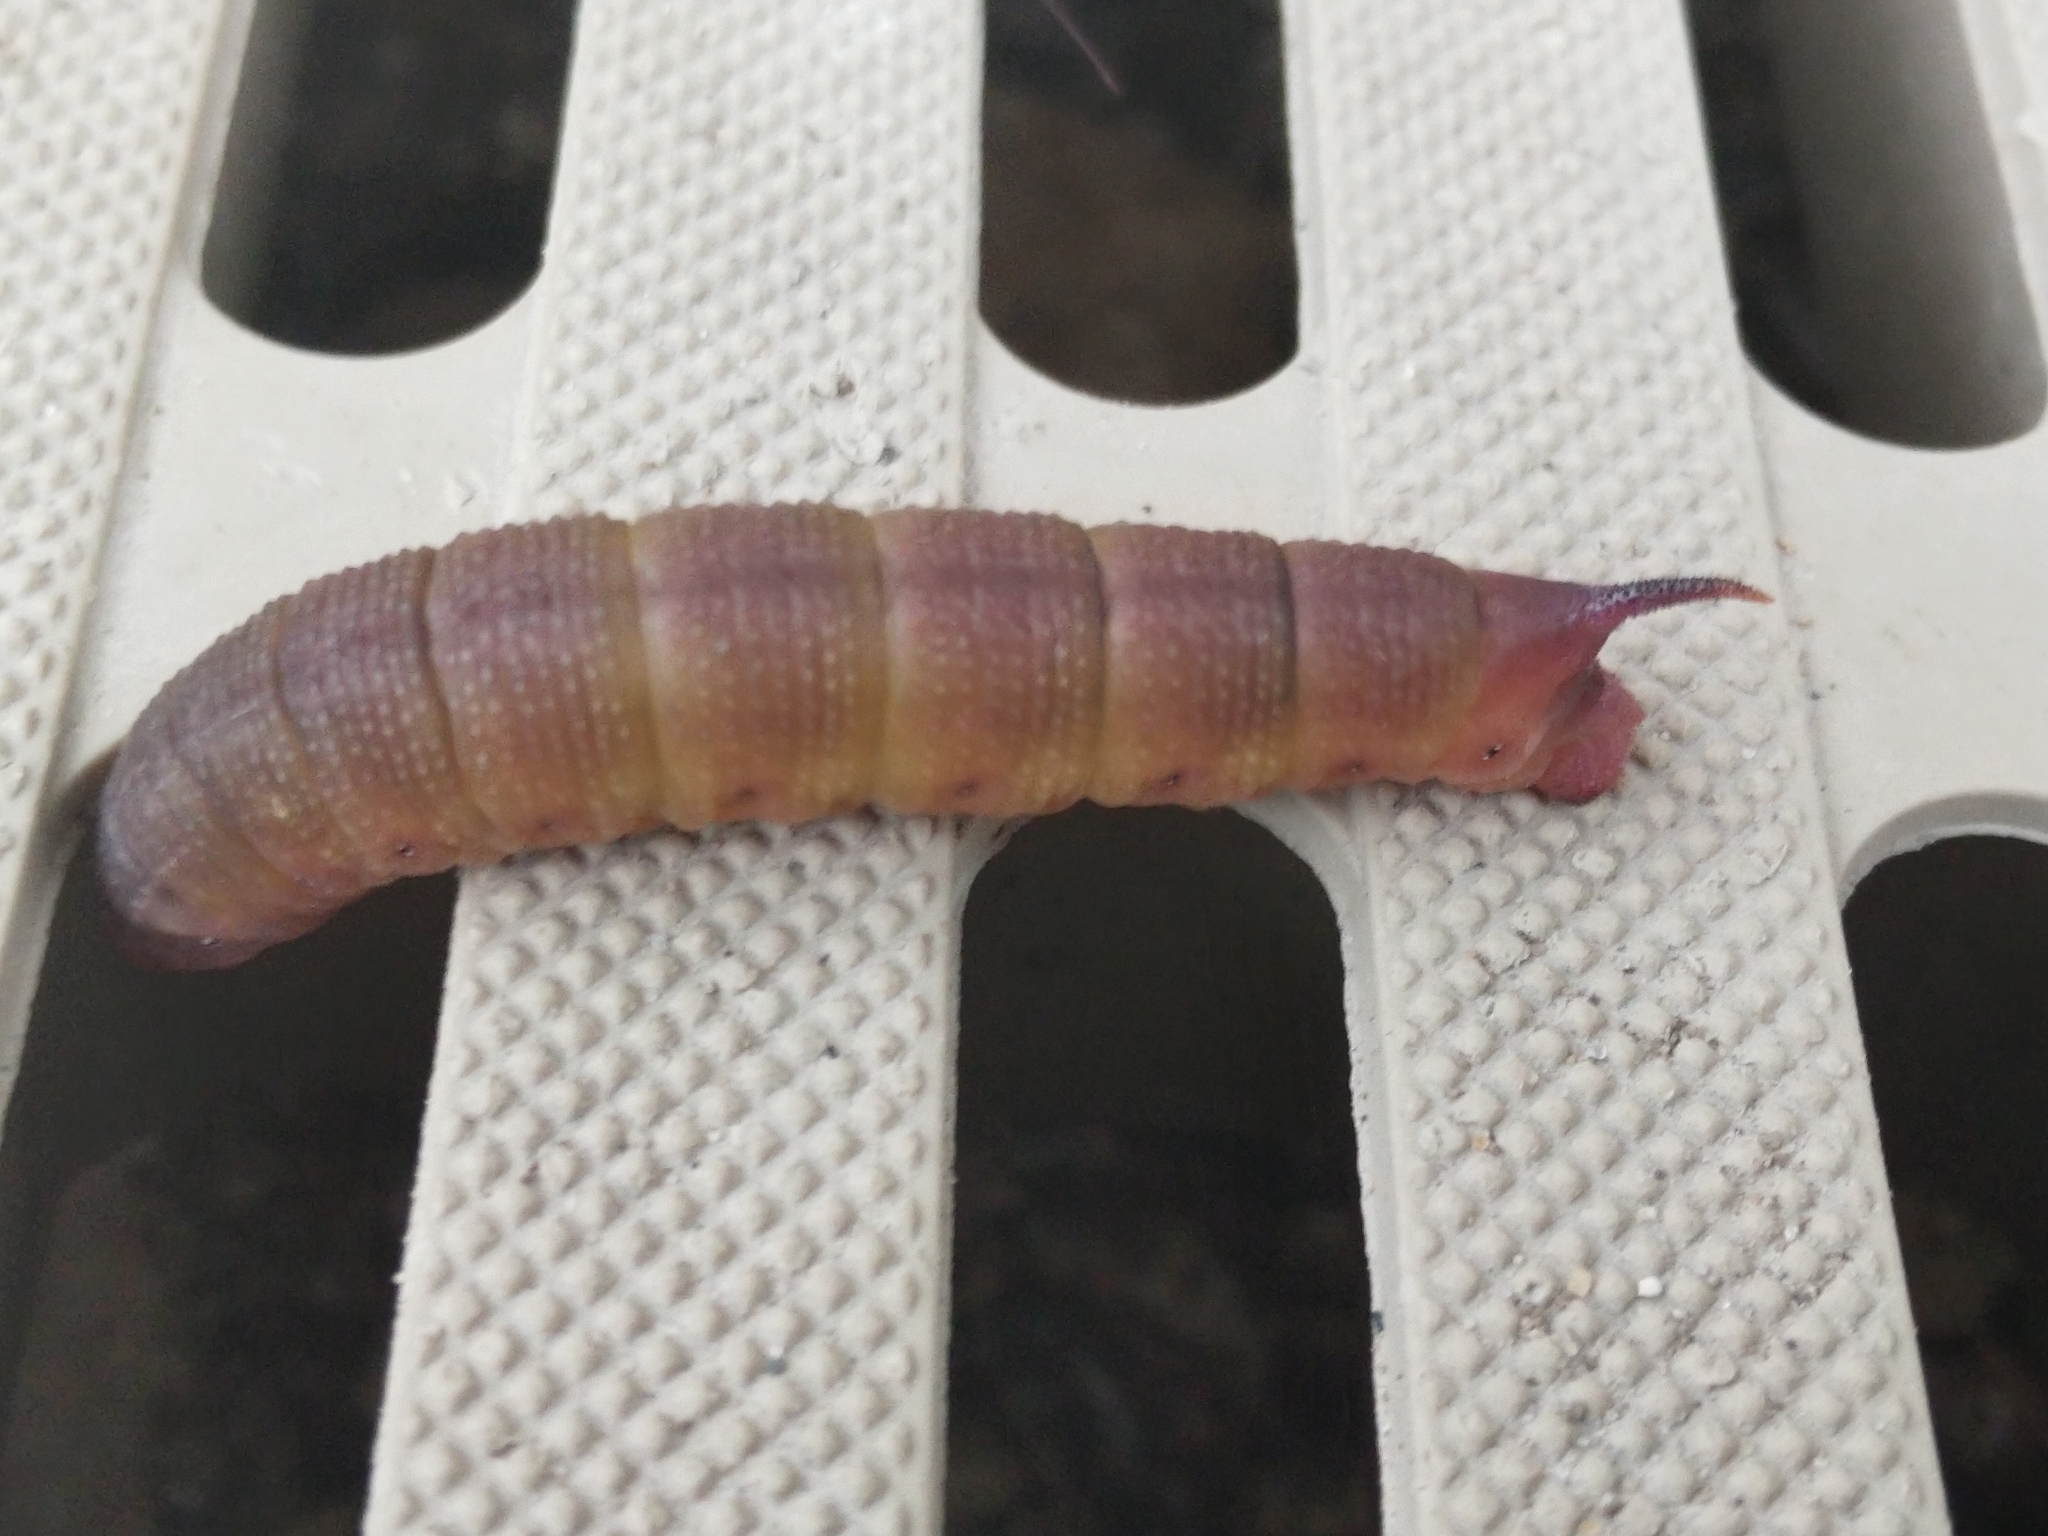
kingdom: Animalia
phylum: Arthropoda
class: Insecta
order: Lepidoptera
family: Sphingidae
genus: Hemaris
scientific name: Hemaris thysbe
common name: Common clear-wing
